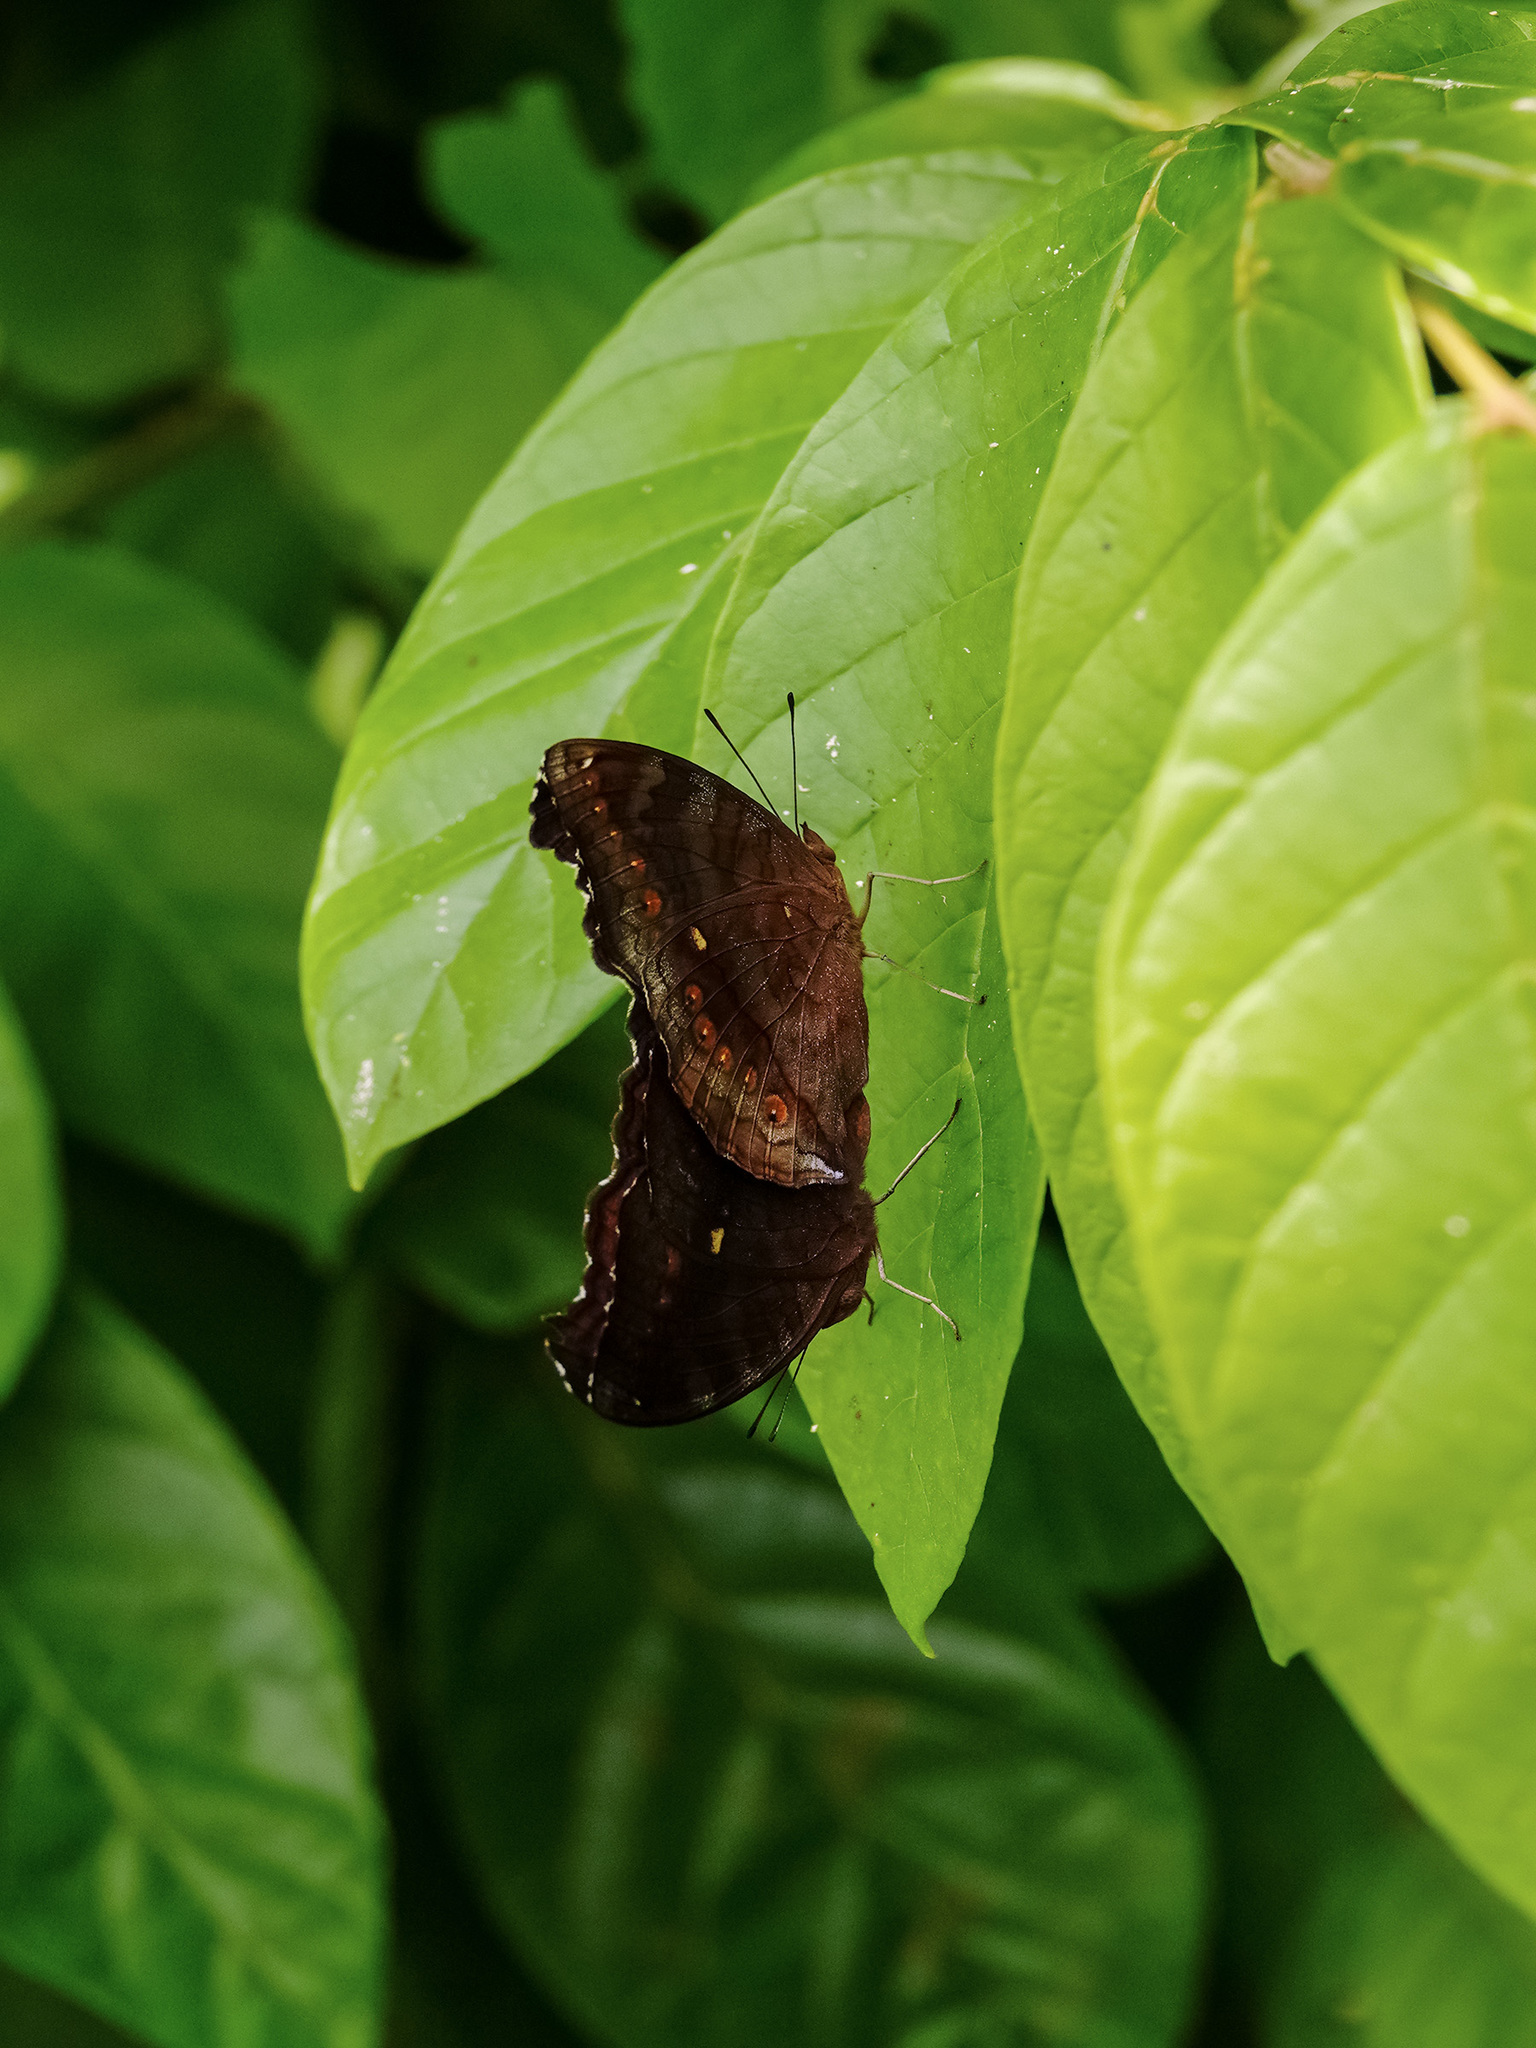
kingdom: Animalia
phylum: Arthropoda
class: Insecta
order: Lepidoptera
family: Nymphalidae
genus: Junonia
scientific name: Junonia hedonia
